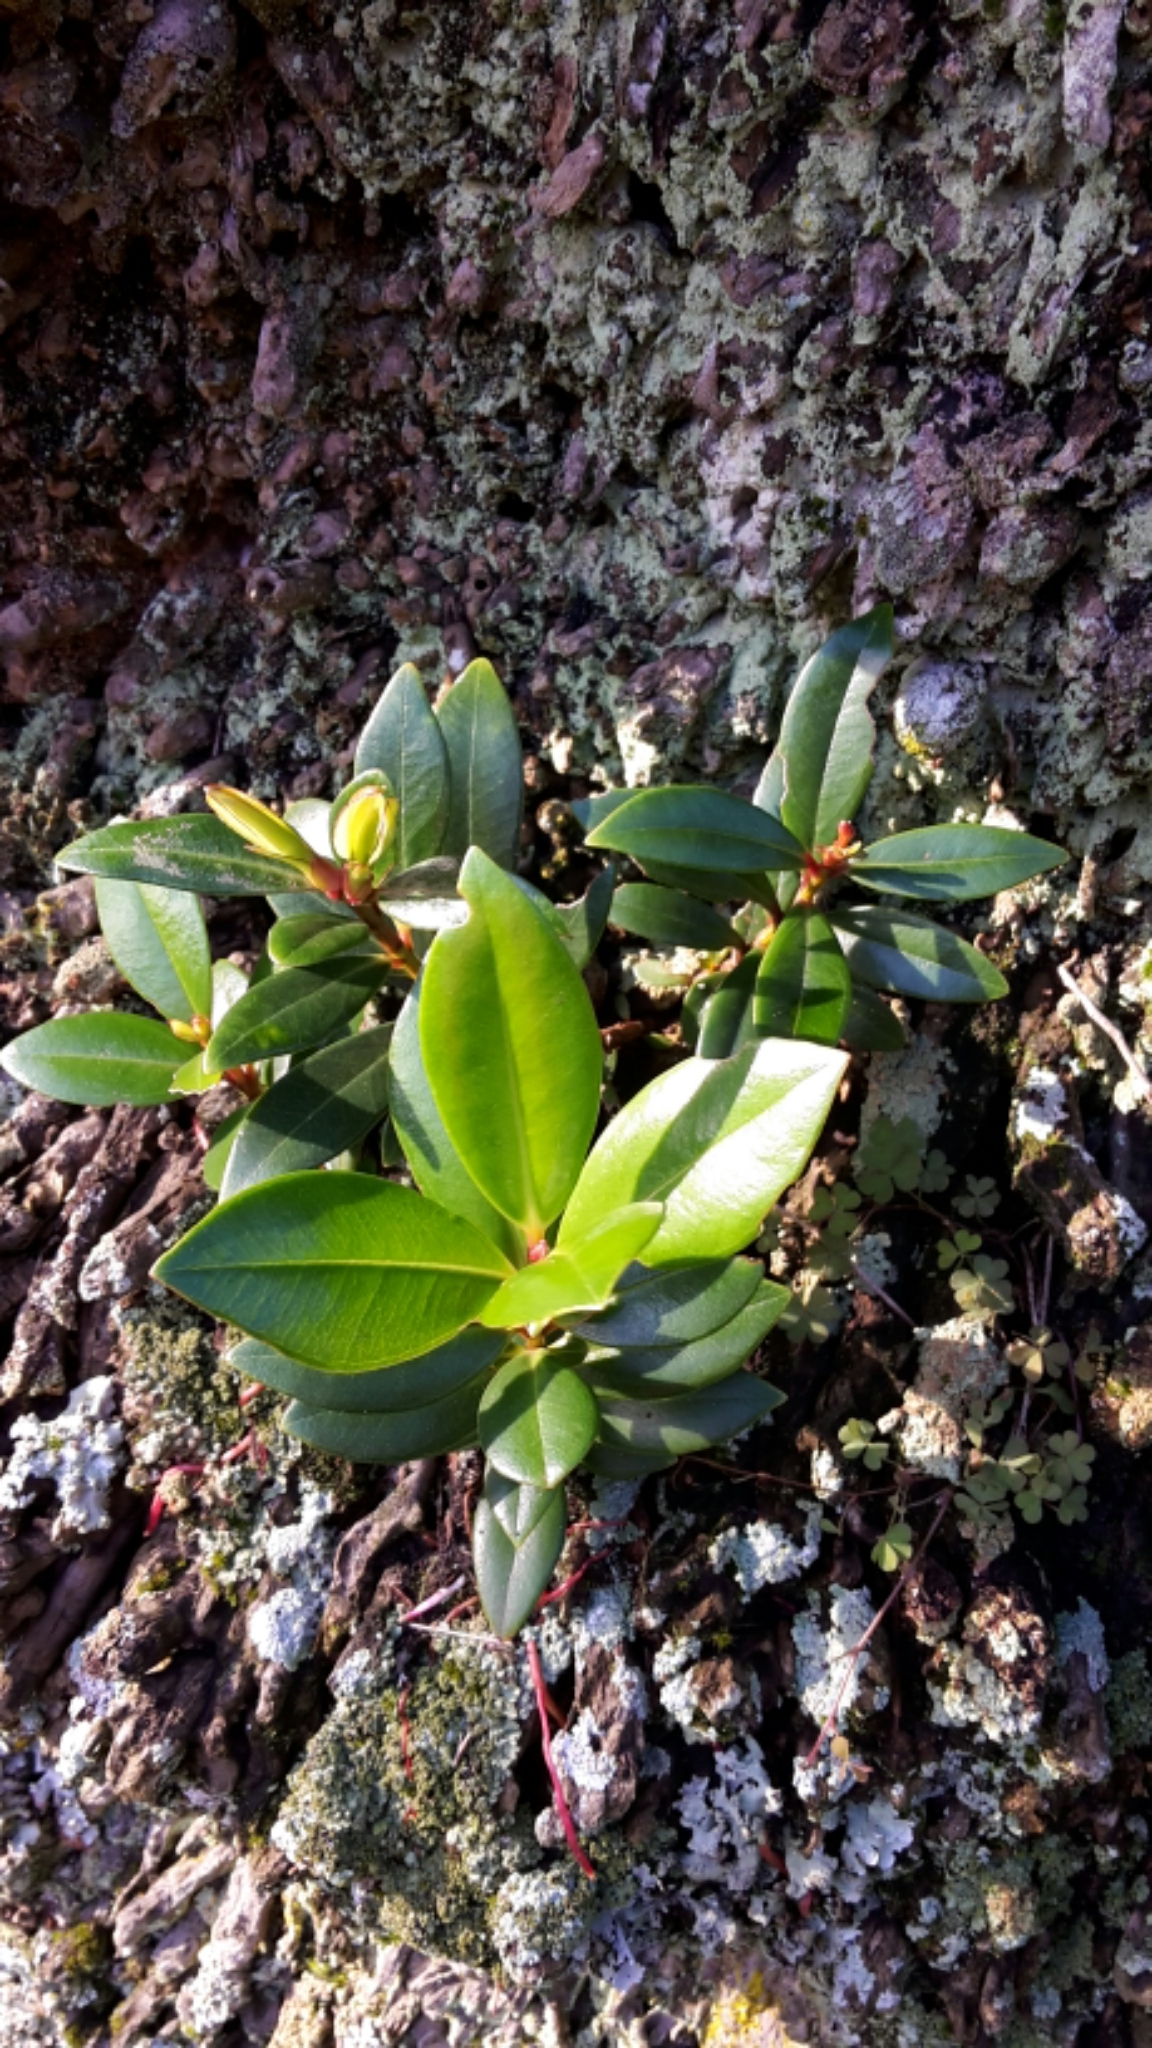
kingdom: Plantae
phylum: Tracheophyta
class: Magnoliopsida
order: Myrtales
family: Myrtaceae
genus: Metrosideros
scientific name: Metrosideros excelsa
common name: New zealand christmastree
